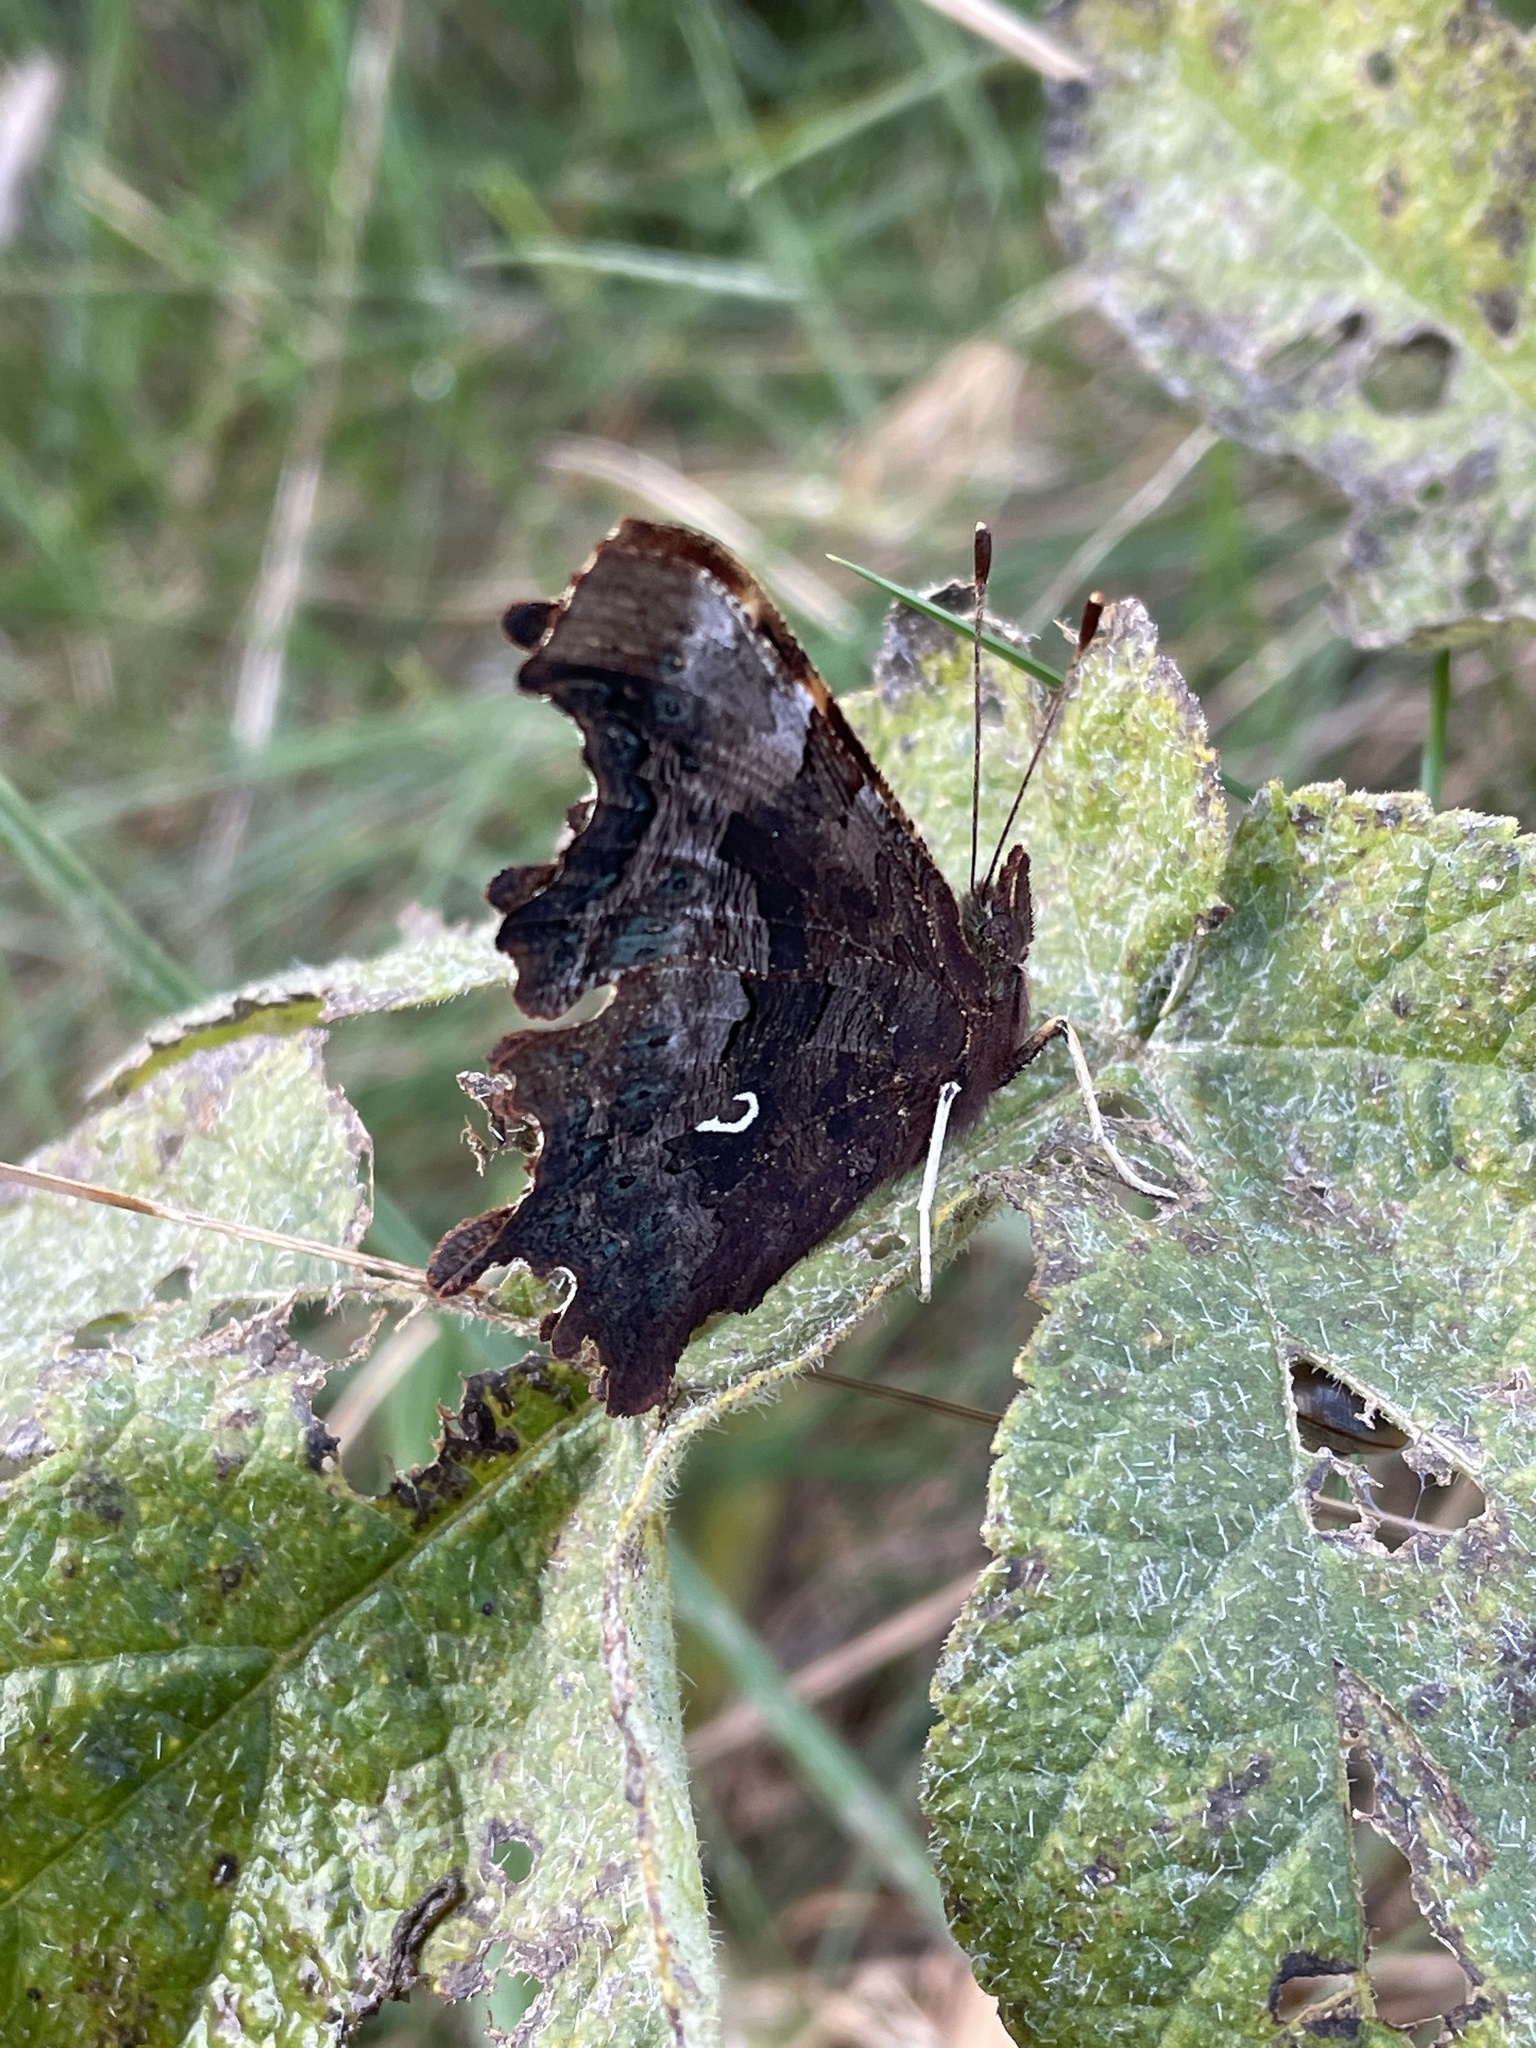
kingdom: Animalia
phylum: Arthropoda
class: Insecta
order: Lepidoptera
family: Nymphalidae
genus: Polygonia
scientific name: Polygonia c-album
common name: Comma
